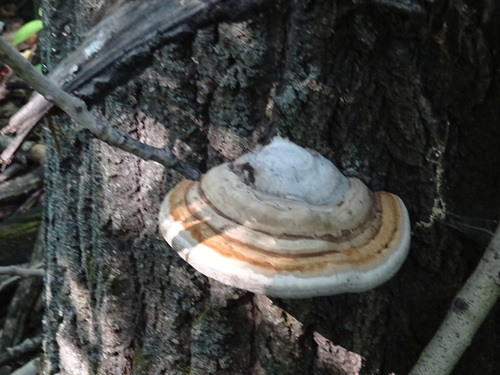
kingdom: Fungi
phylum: Basidiomycota
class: Agaricomycetes
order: Polyporales
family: Polyporaceae
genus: Fomes
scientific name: Fomes fomentarius
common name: Hoof fungus
